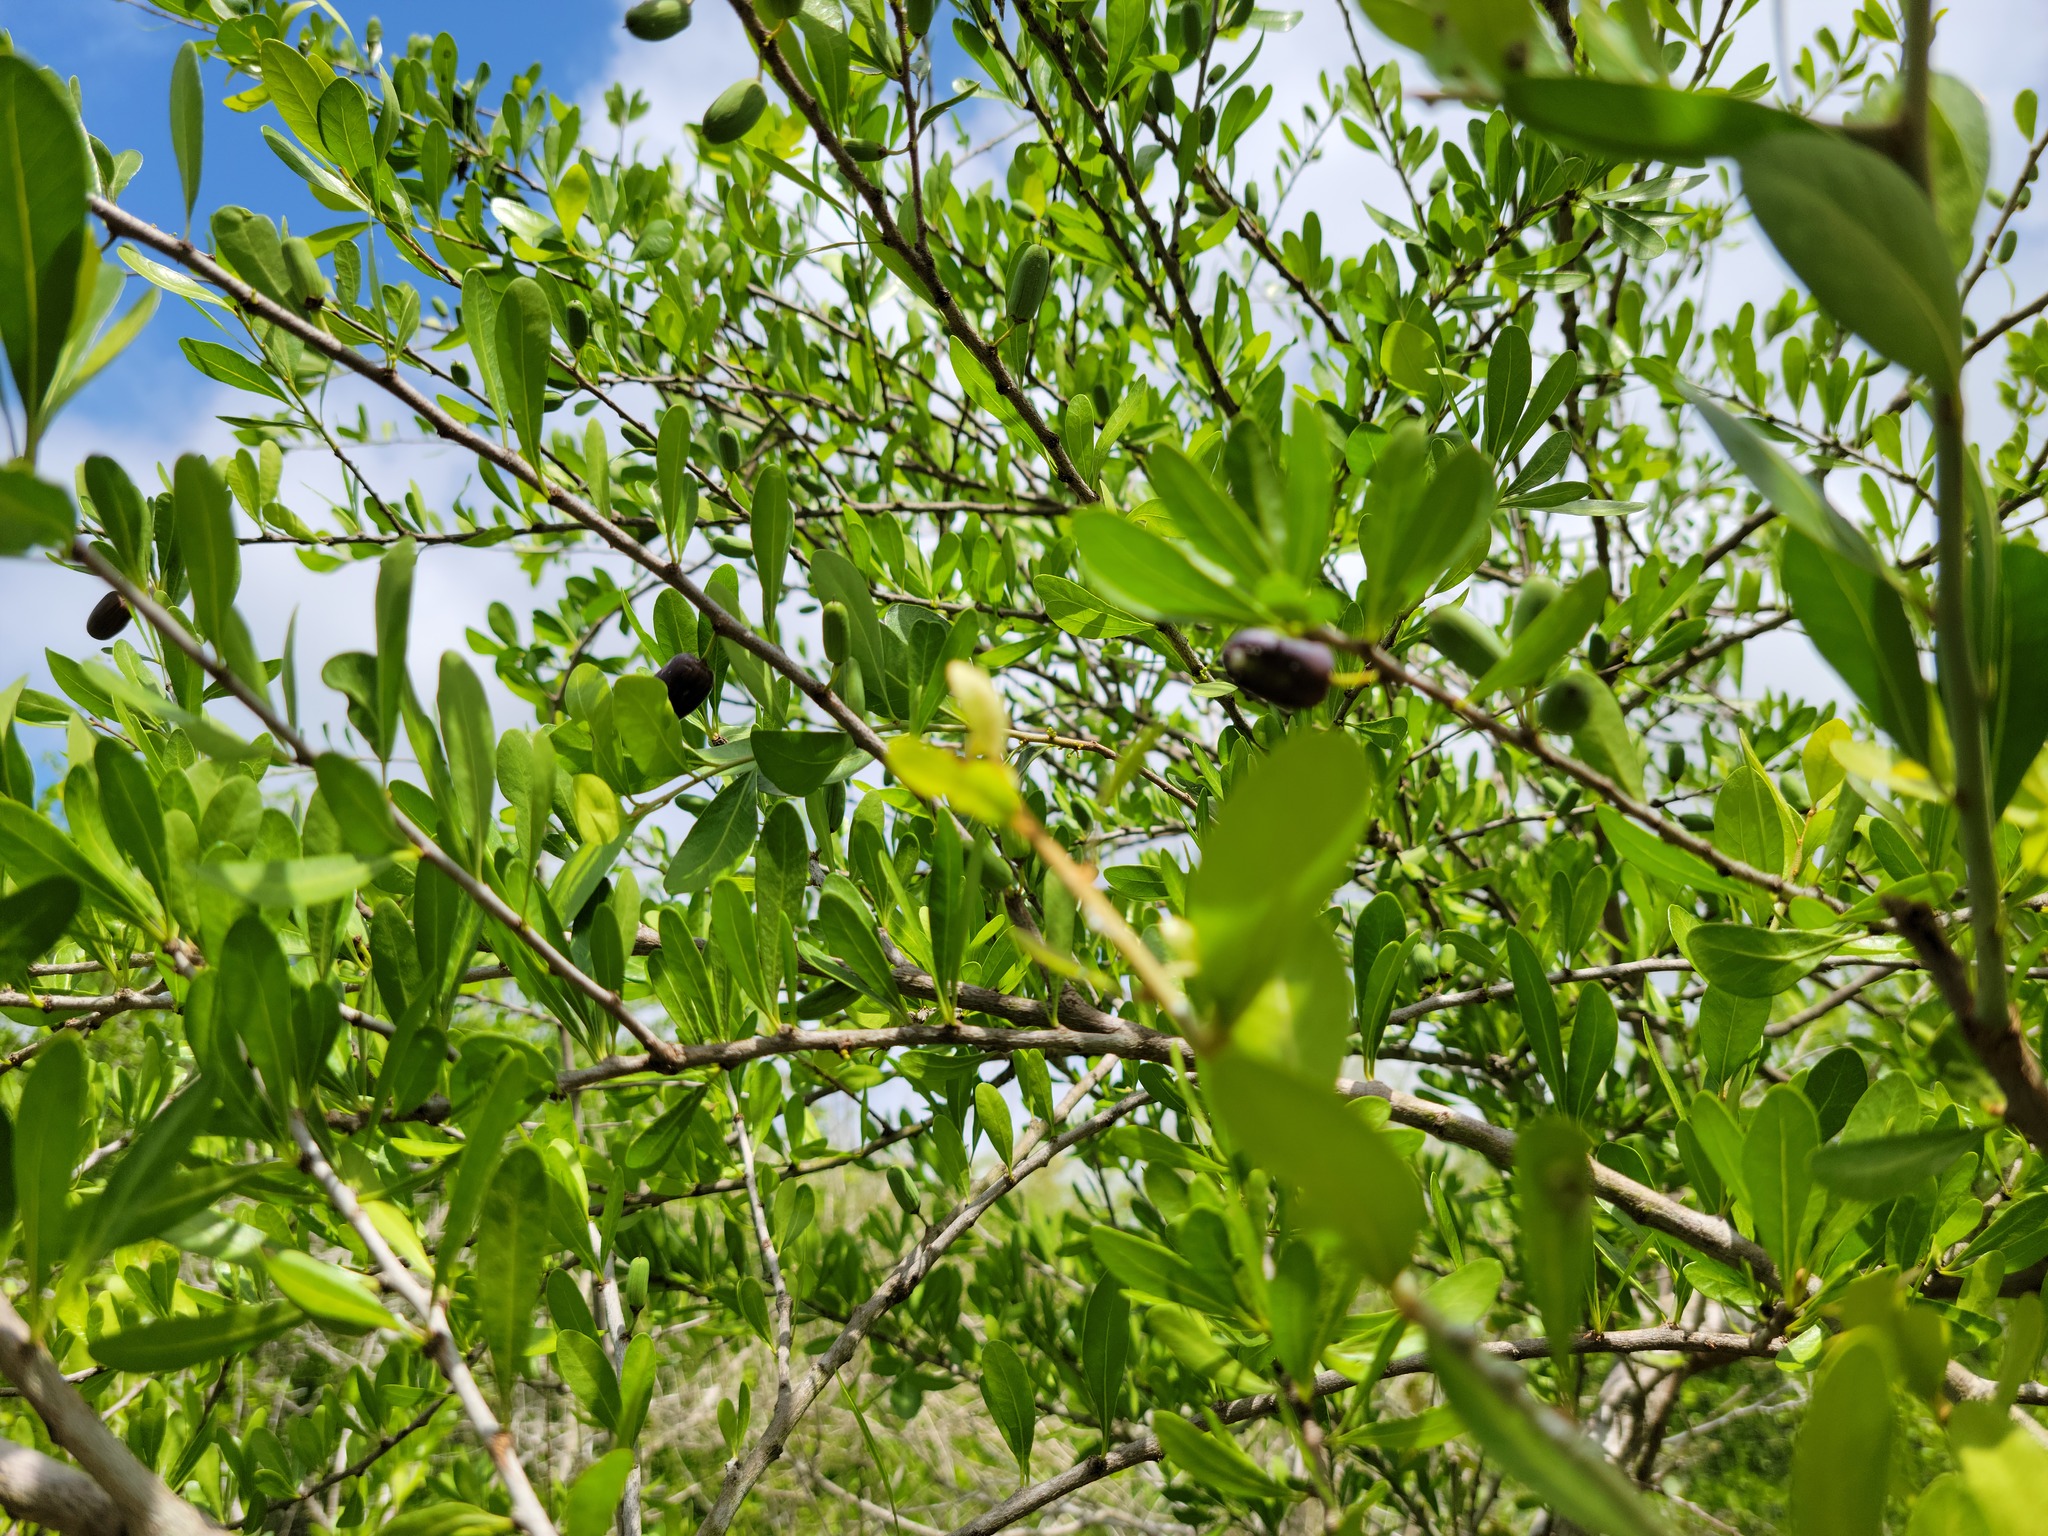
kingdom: Plantae
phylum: Tracheophyta
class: Magnoliopsida
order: Ericales
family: Sapotaceae
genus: Sideroxylon
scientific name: Sideroxylon celastrinum
